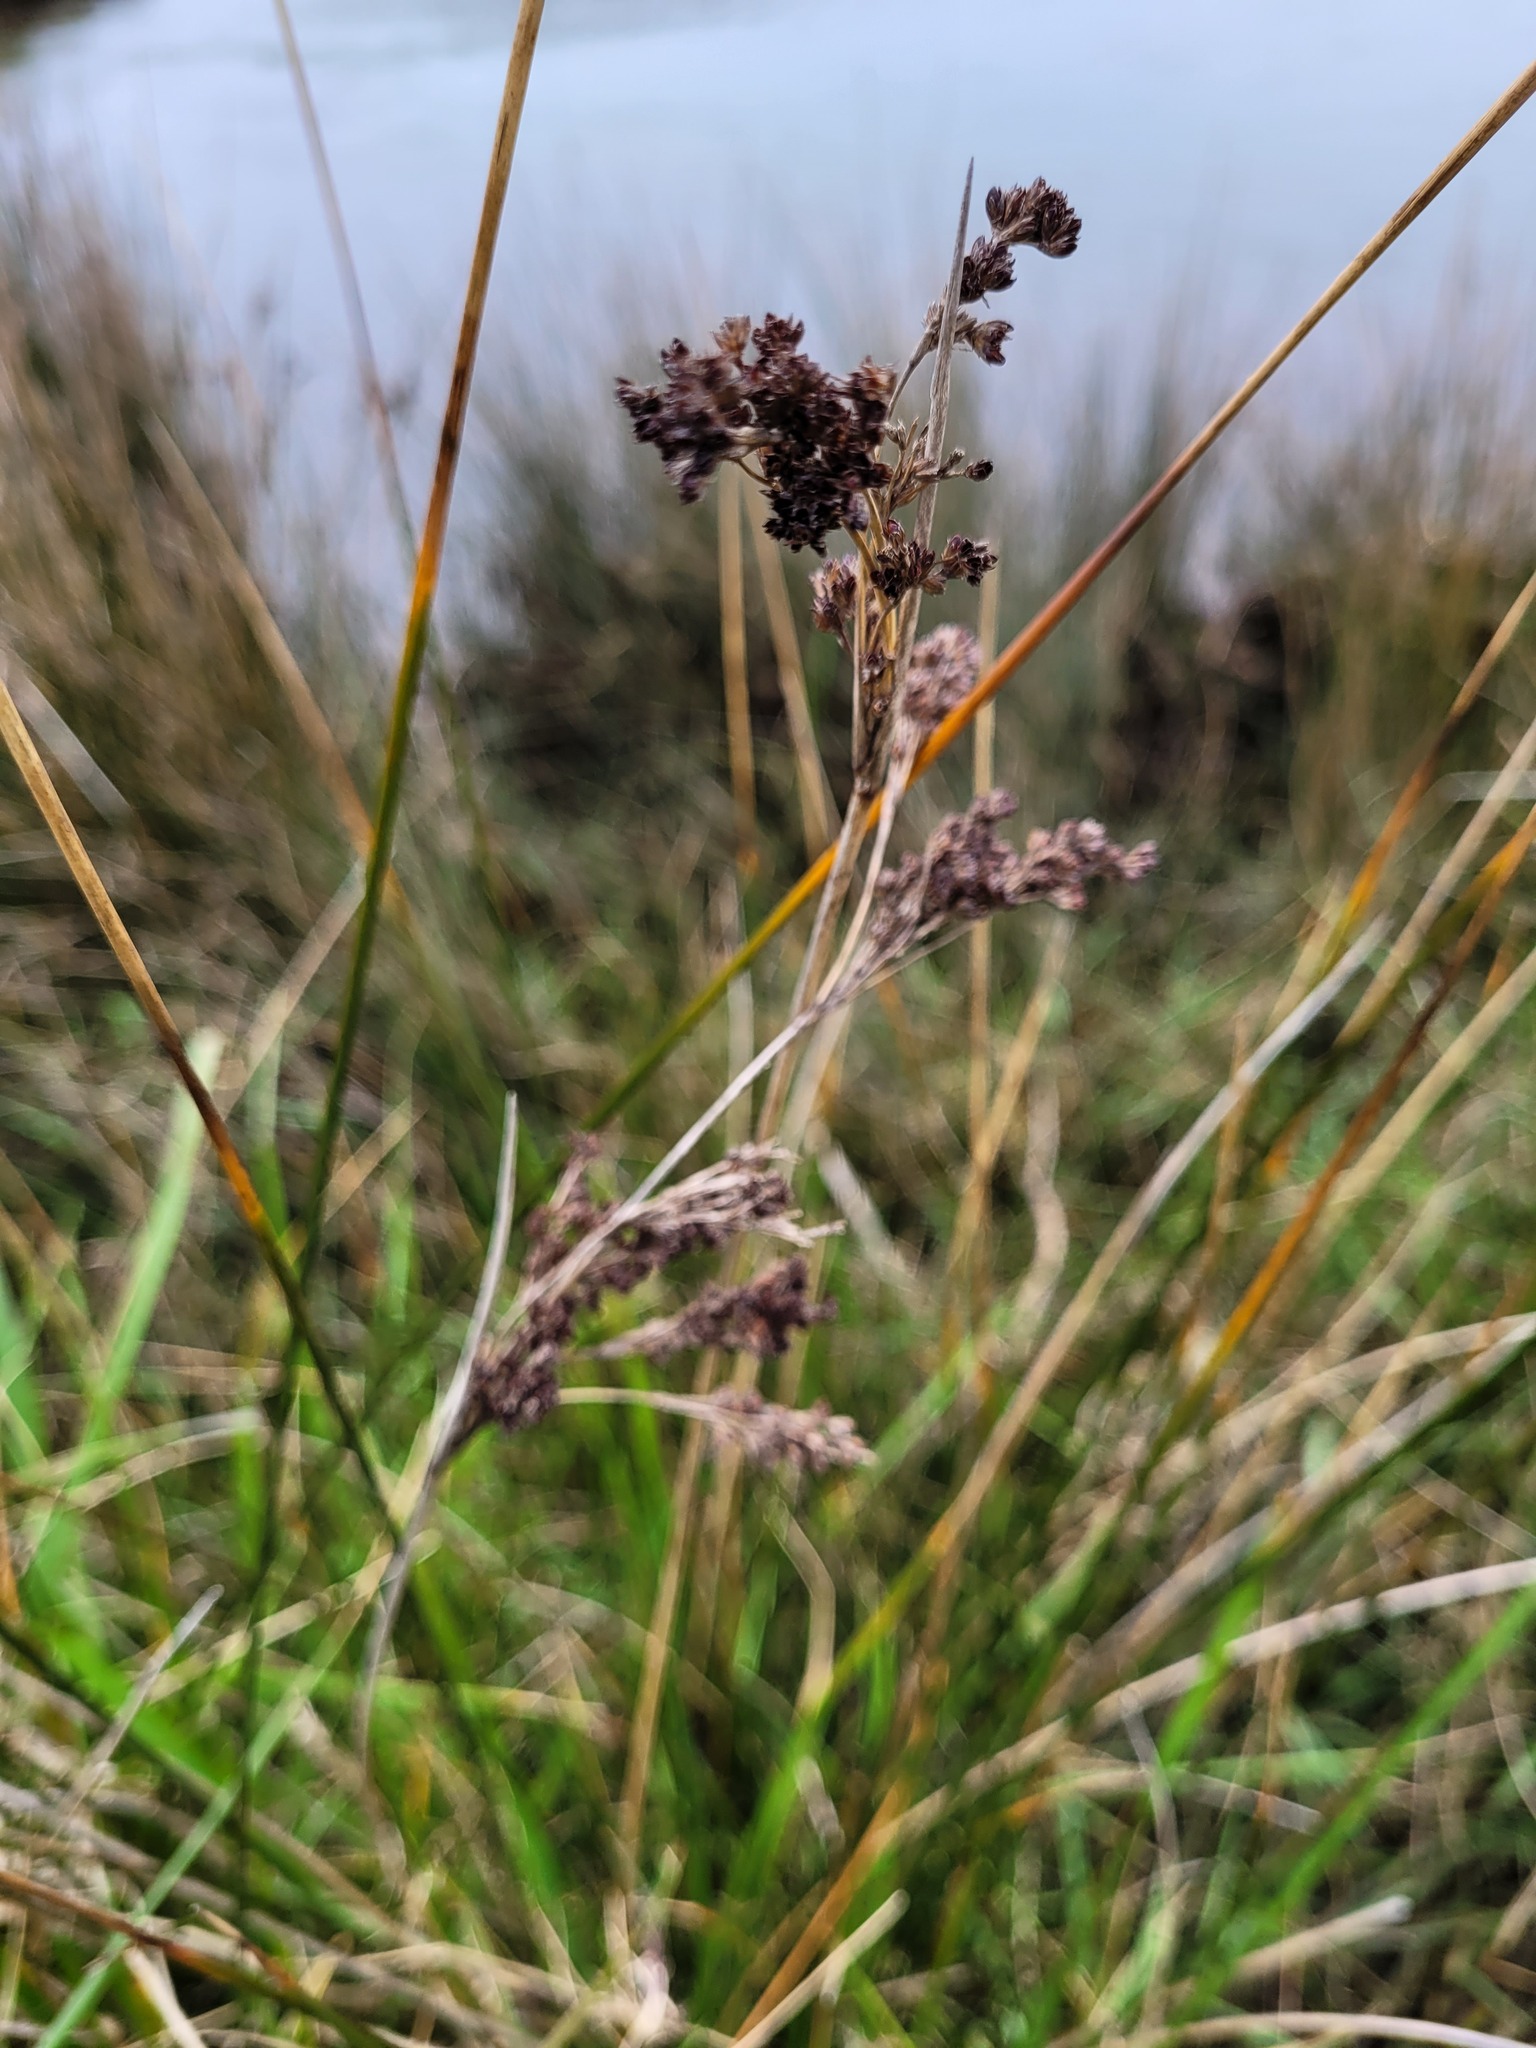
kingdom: Plantae
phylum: Tracheophyta
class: Liliopsida
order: Poales
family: Juncaceae
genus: Juncus
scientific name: Juncus kraussii
